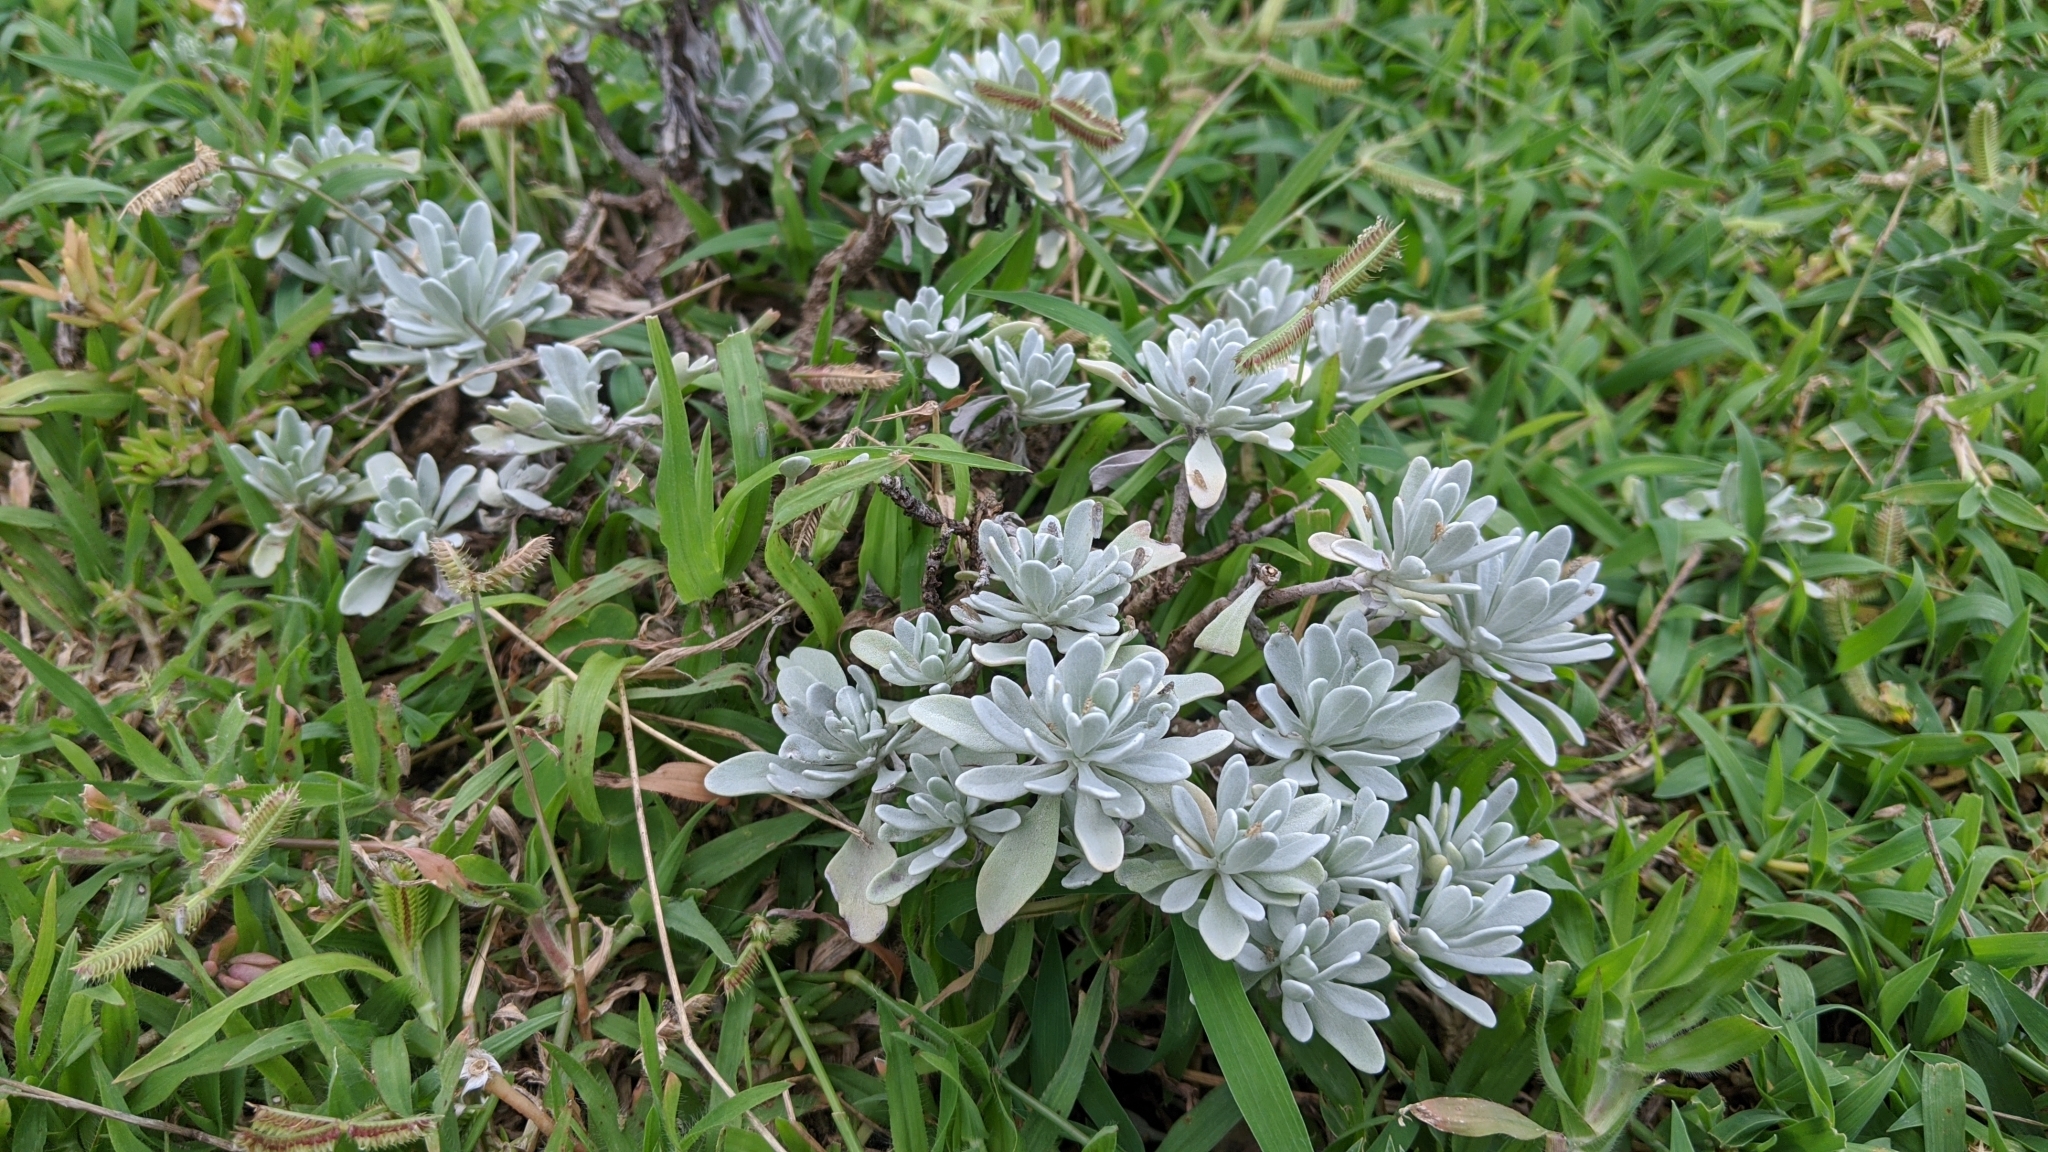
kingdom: Plantae
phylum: Tracheophyta
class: Magnoliopsida
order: Asterales
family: Asteraceae
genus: Crossostephium
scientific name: Crossostephium chinense
